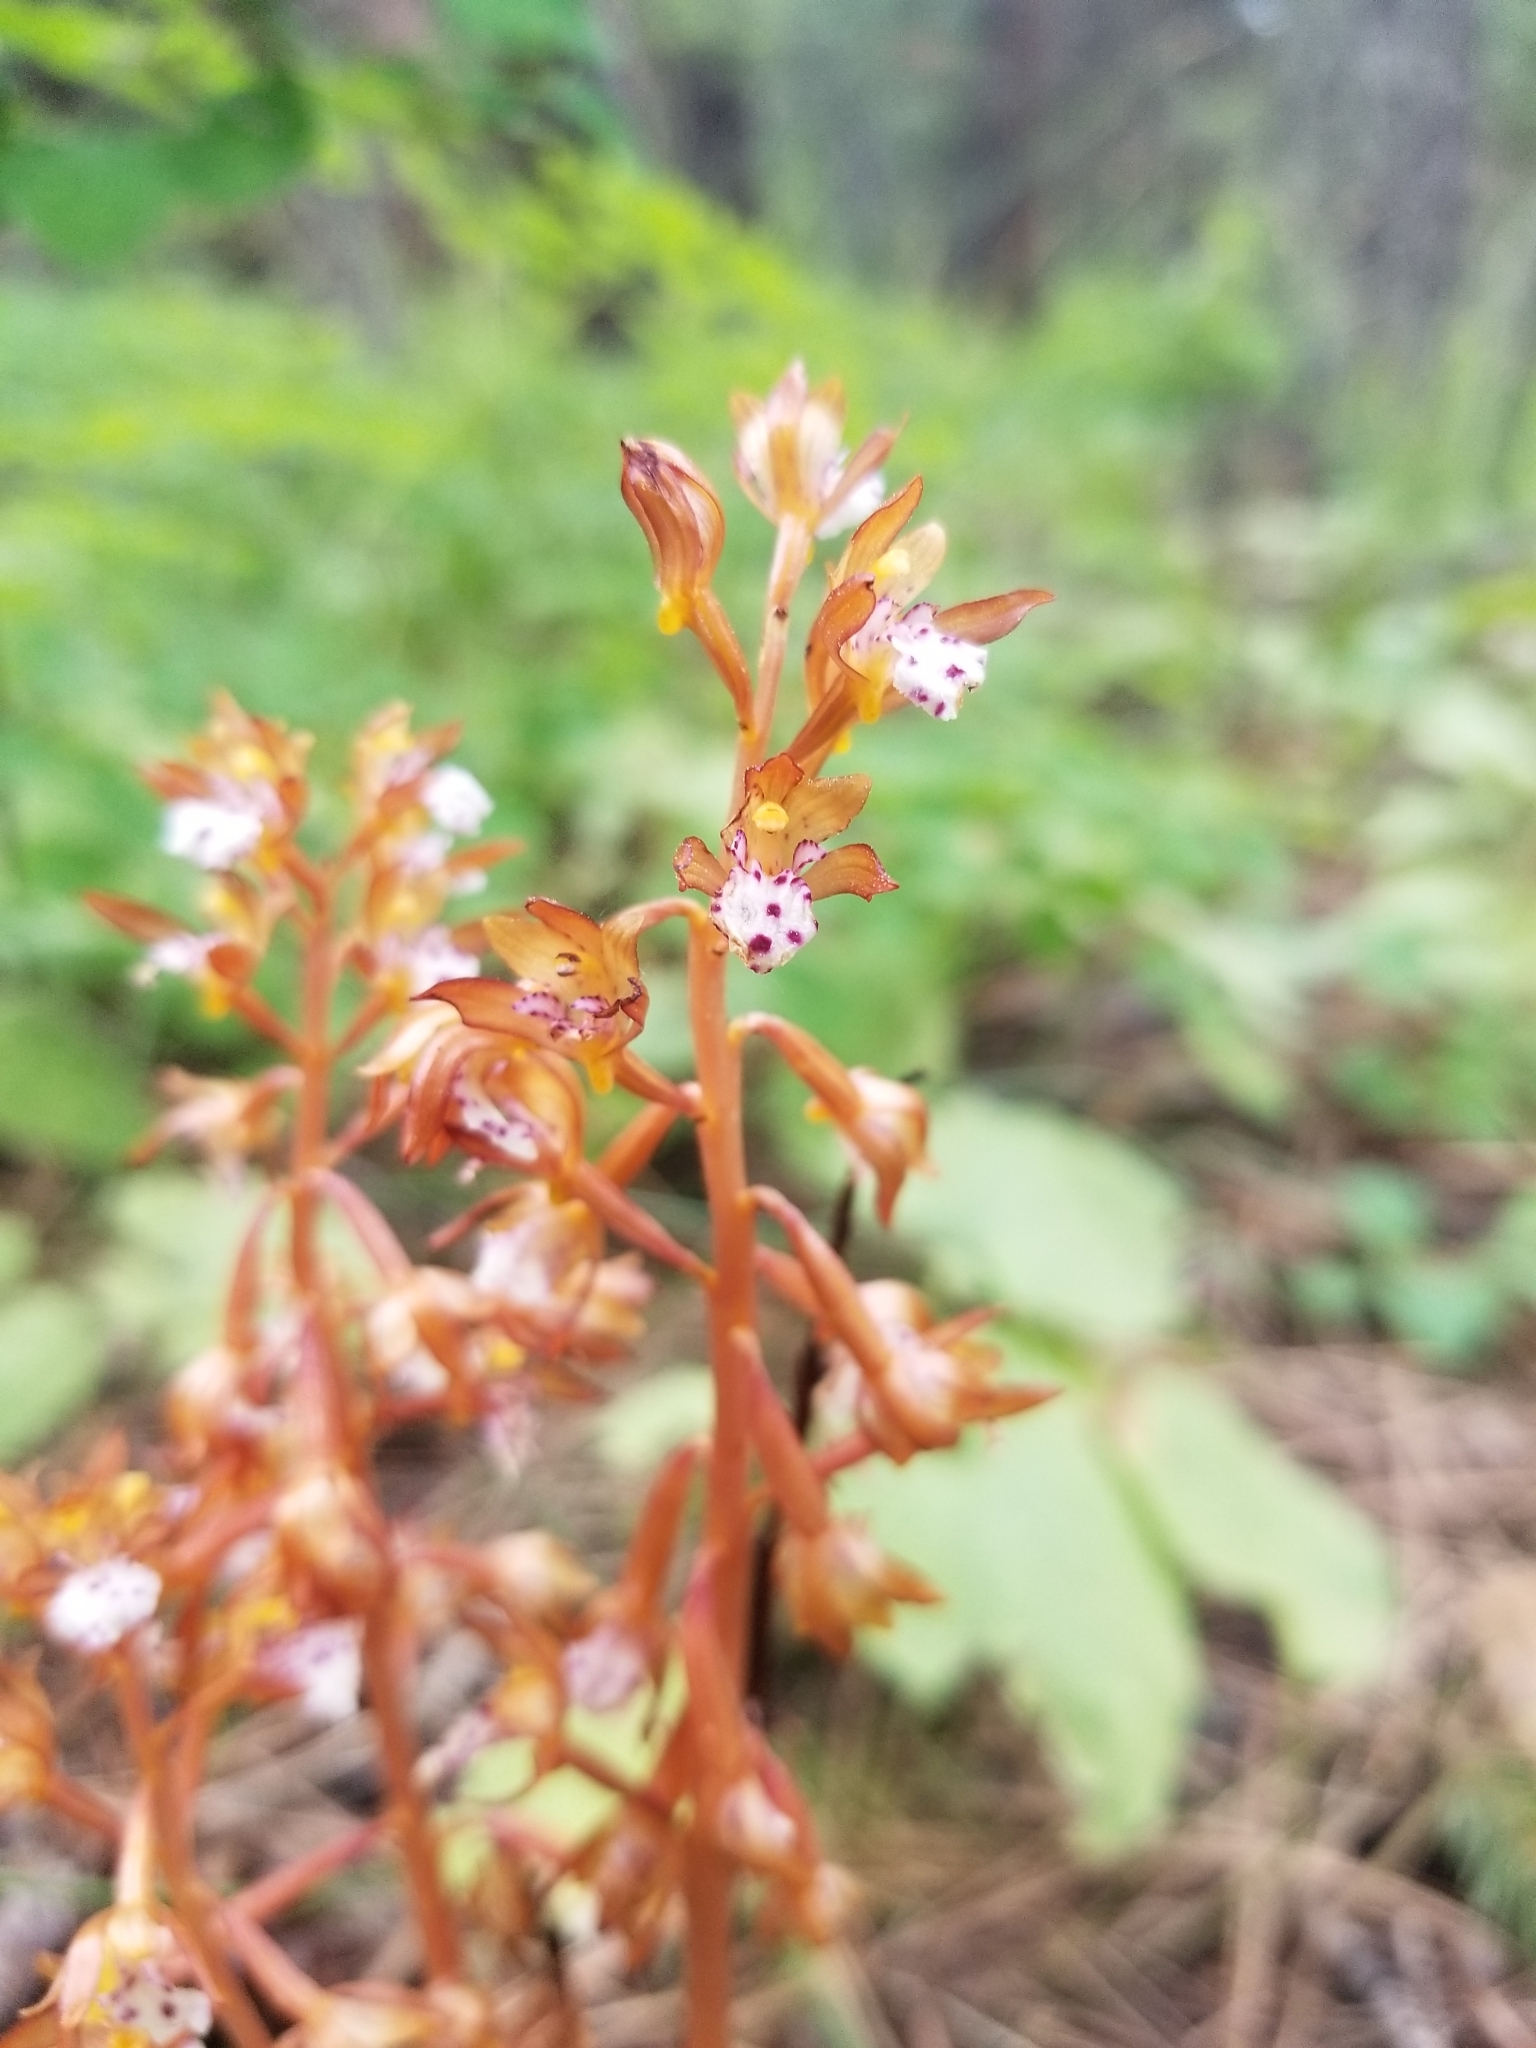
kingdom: Plantae
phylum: Tracheophyta
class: Liliopsida
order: Asparagales
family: Orchidaceae
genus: Corallorhiza
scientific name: Corallorhiza maculata
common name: Spotted coralroot
